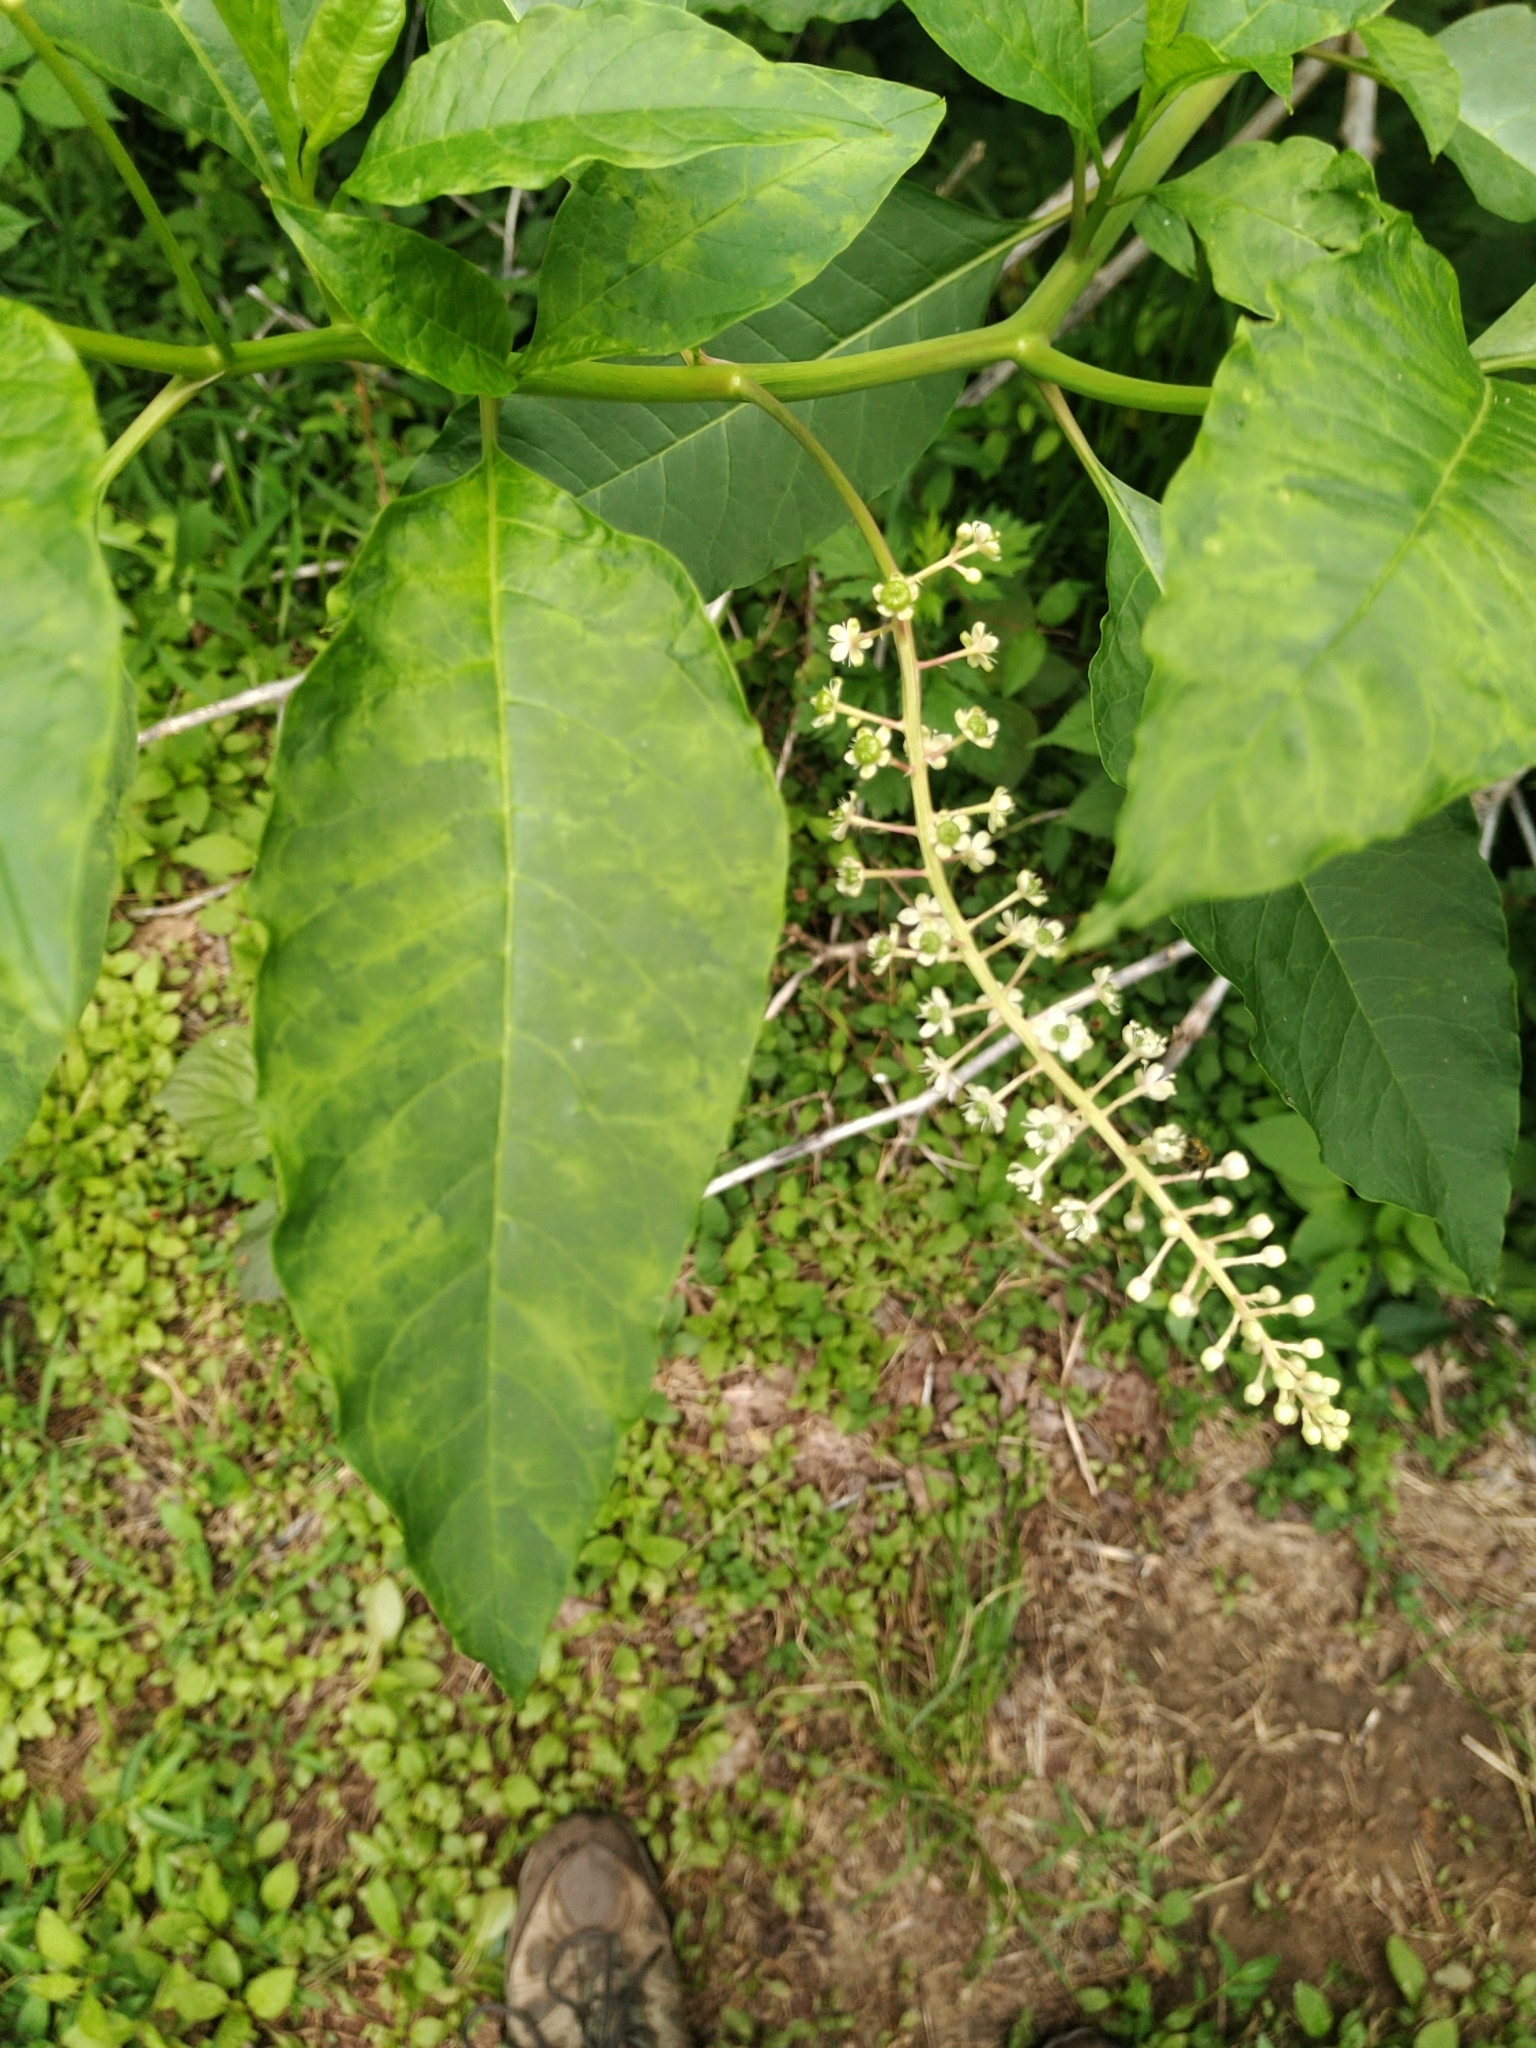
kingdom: Plantae
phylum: Tracheophyta
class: Magnoliopsida
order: Caryophyllales
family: Phytolaccaceae
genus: Phytolacca
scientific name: Phytolacca americana
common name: American pokeweed
